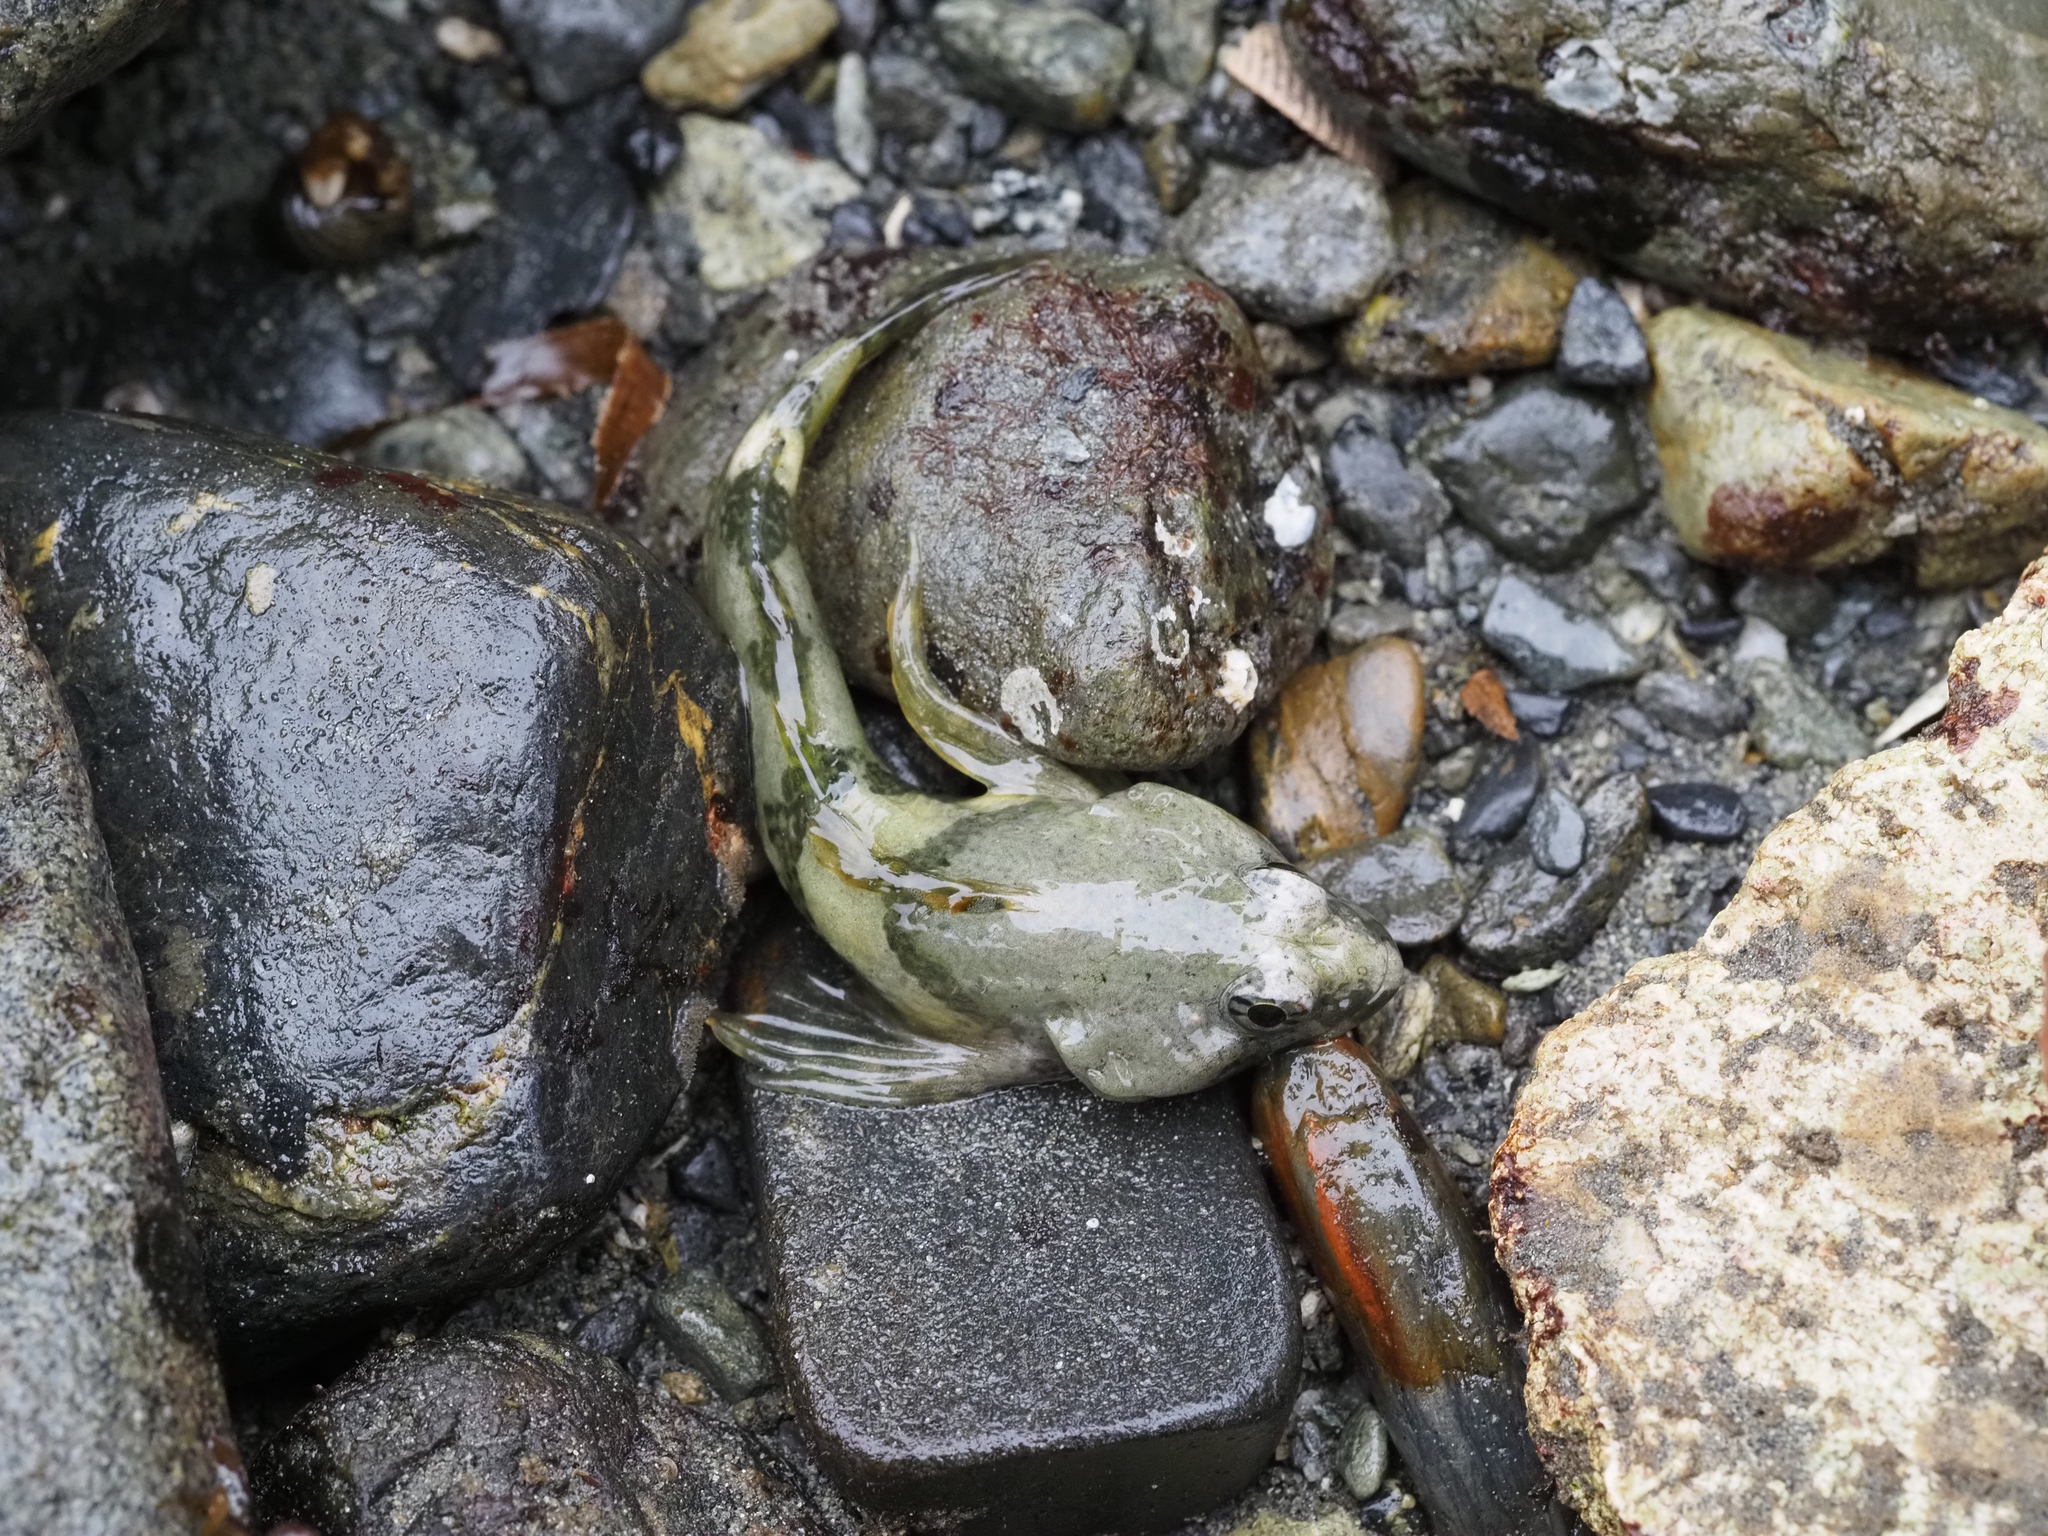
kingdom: Animalia
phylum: Chordata
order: Scorpaeniformes
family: Cottidae
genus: Oligocottus
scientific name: Oligocottus maculosus
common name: Tidepool sculpin
